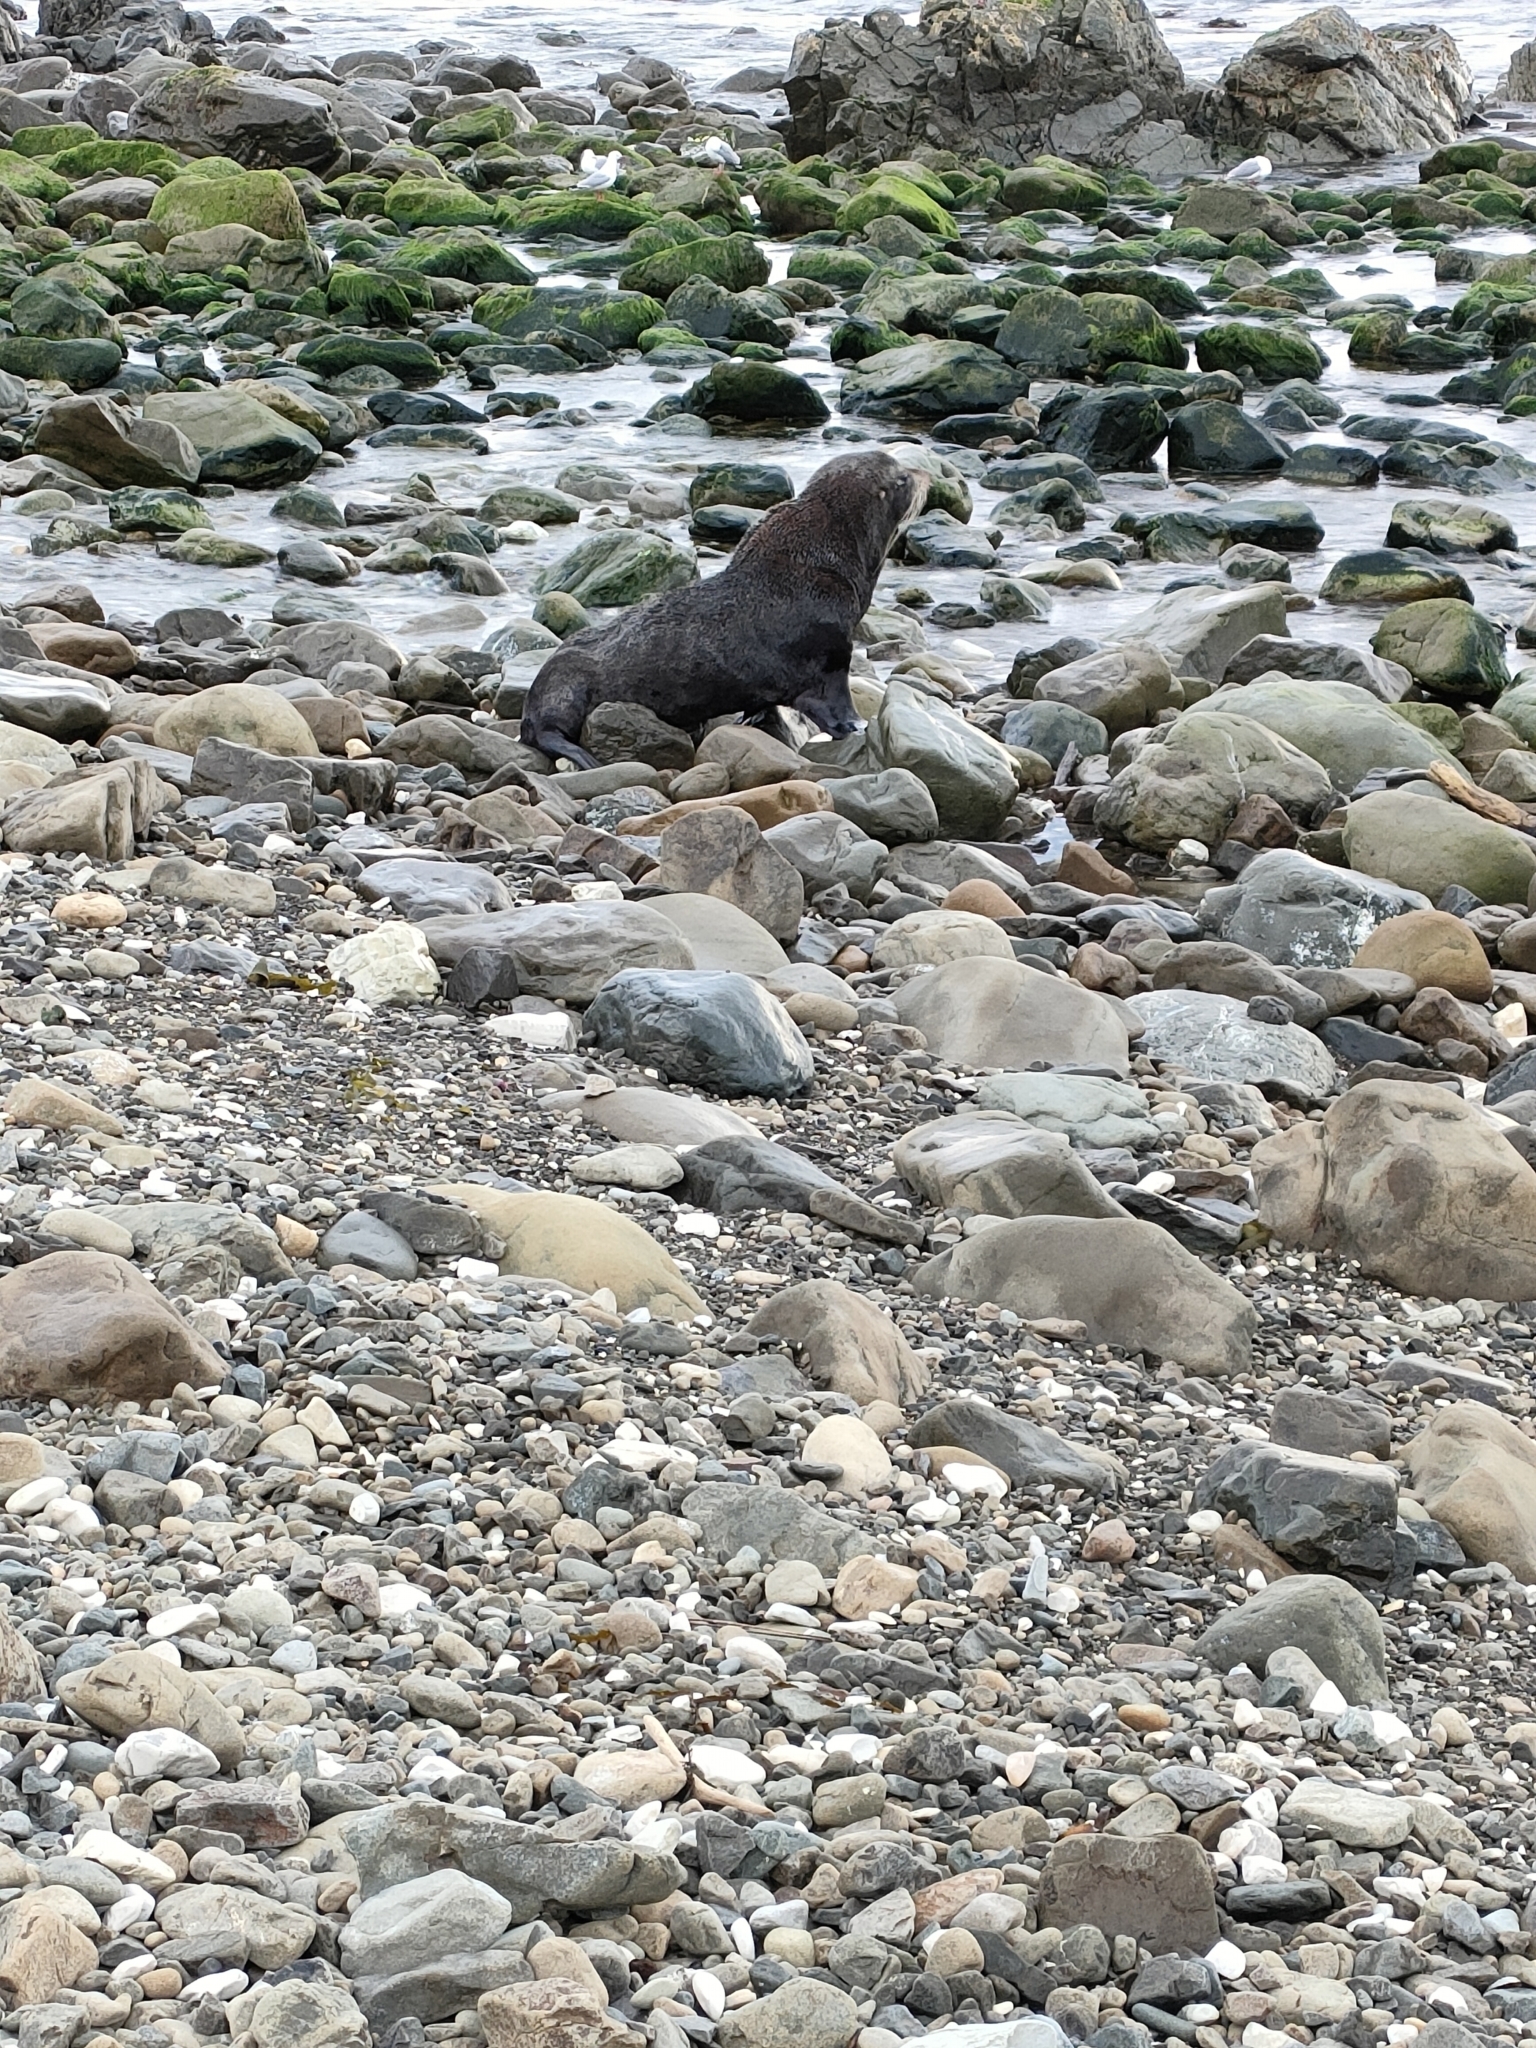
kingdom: Animalia
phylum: Chordata
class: Mammalia
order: Carnivora
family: Otariidae
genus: Arctocephalus
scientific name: Arctocephalus forsteri
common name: New zealand fur seal
